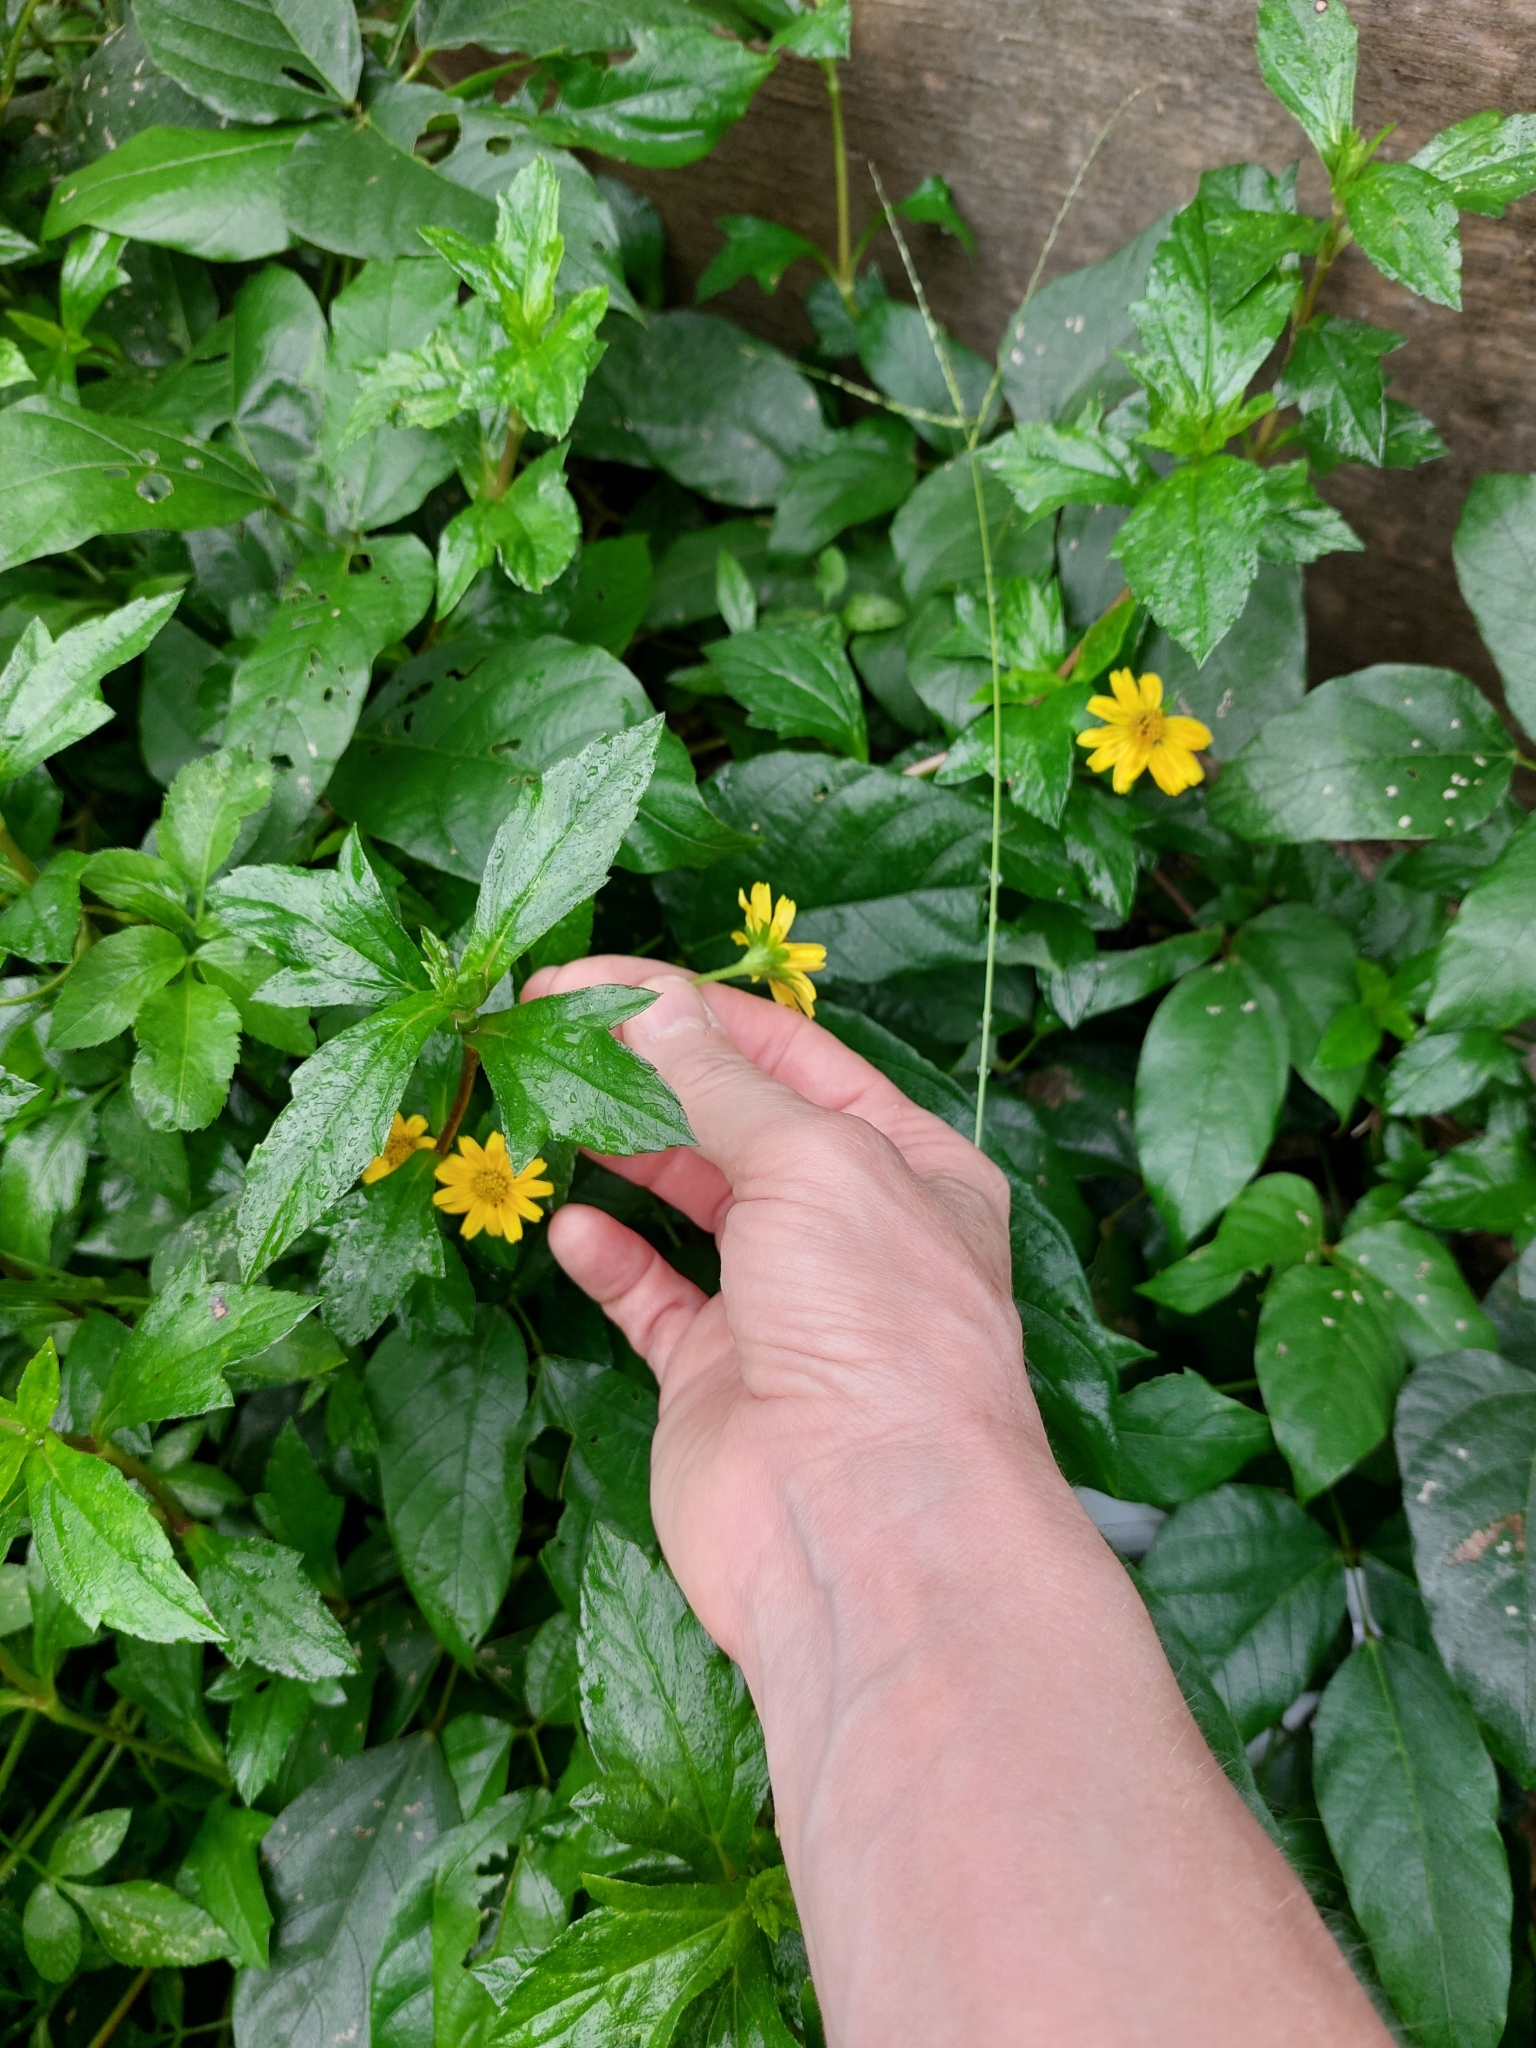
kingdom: Plantae
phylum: Tracheophyta
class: Magnoliopsida
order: Asterales
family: Asteraceae
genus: Sphagneticola
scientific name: Sphagneticola trilobata
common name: Bay biscayne creeping-oxeye
